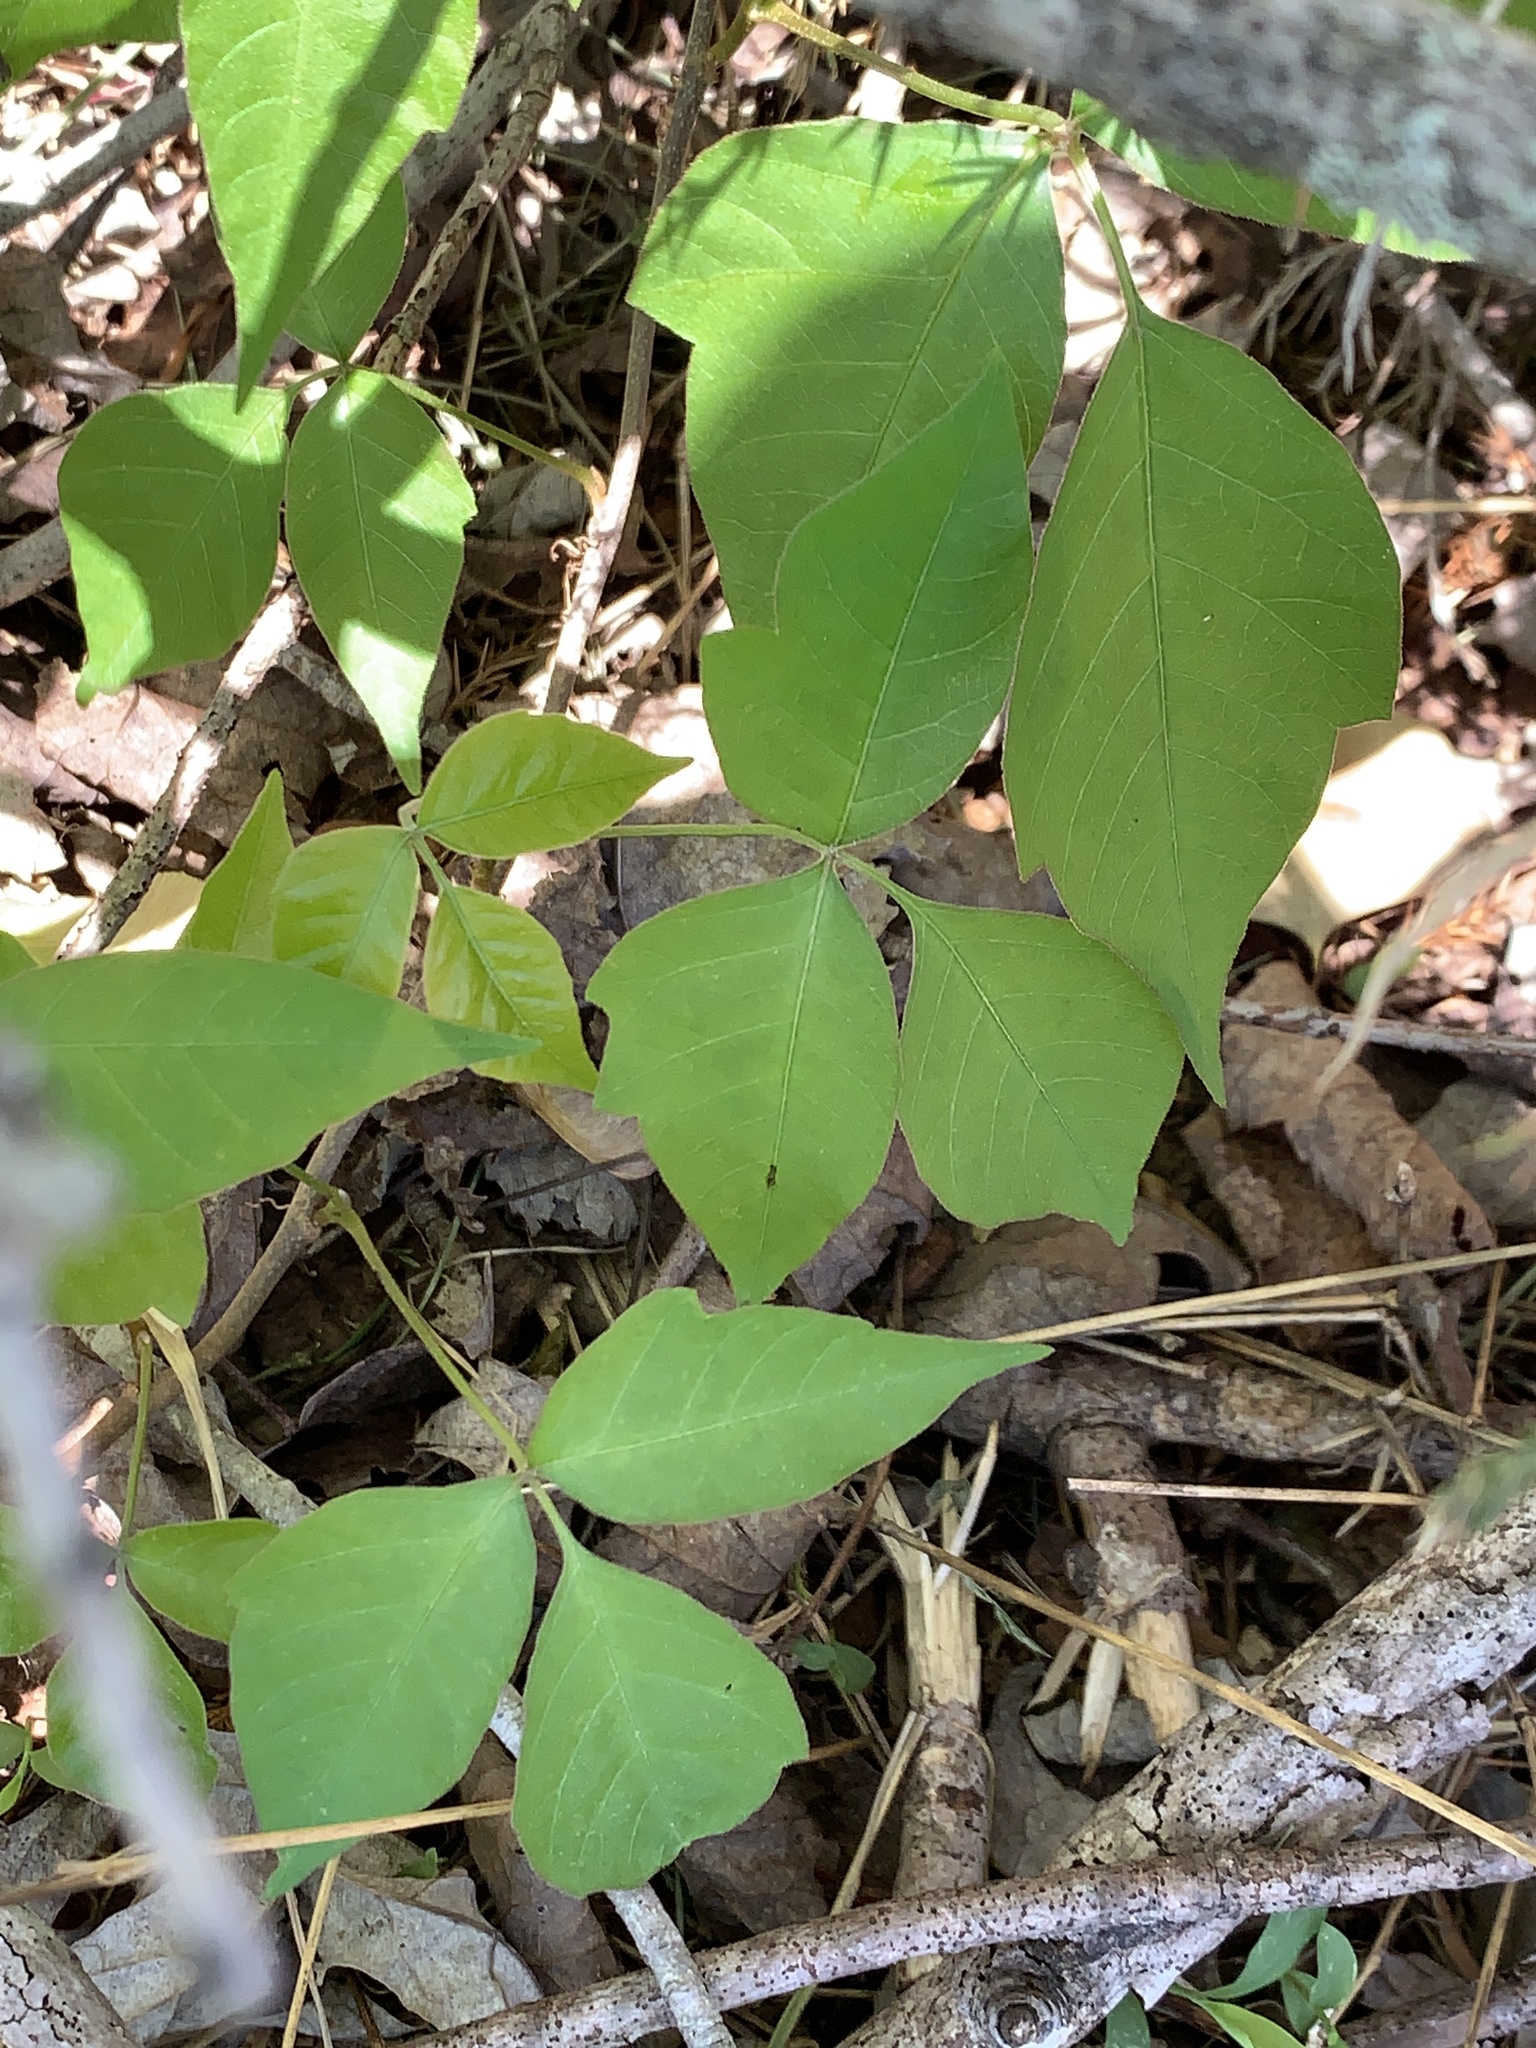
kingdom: Plantae
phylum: Tracheophyta
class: Magnoliopsida
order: Sapindales
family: Anacardiaceae
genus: Toxicodendron
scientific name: Toxicodendron radicans
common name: Poison ivy
